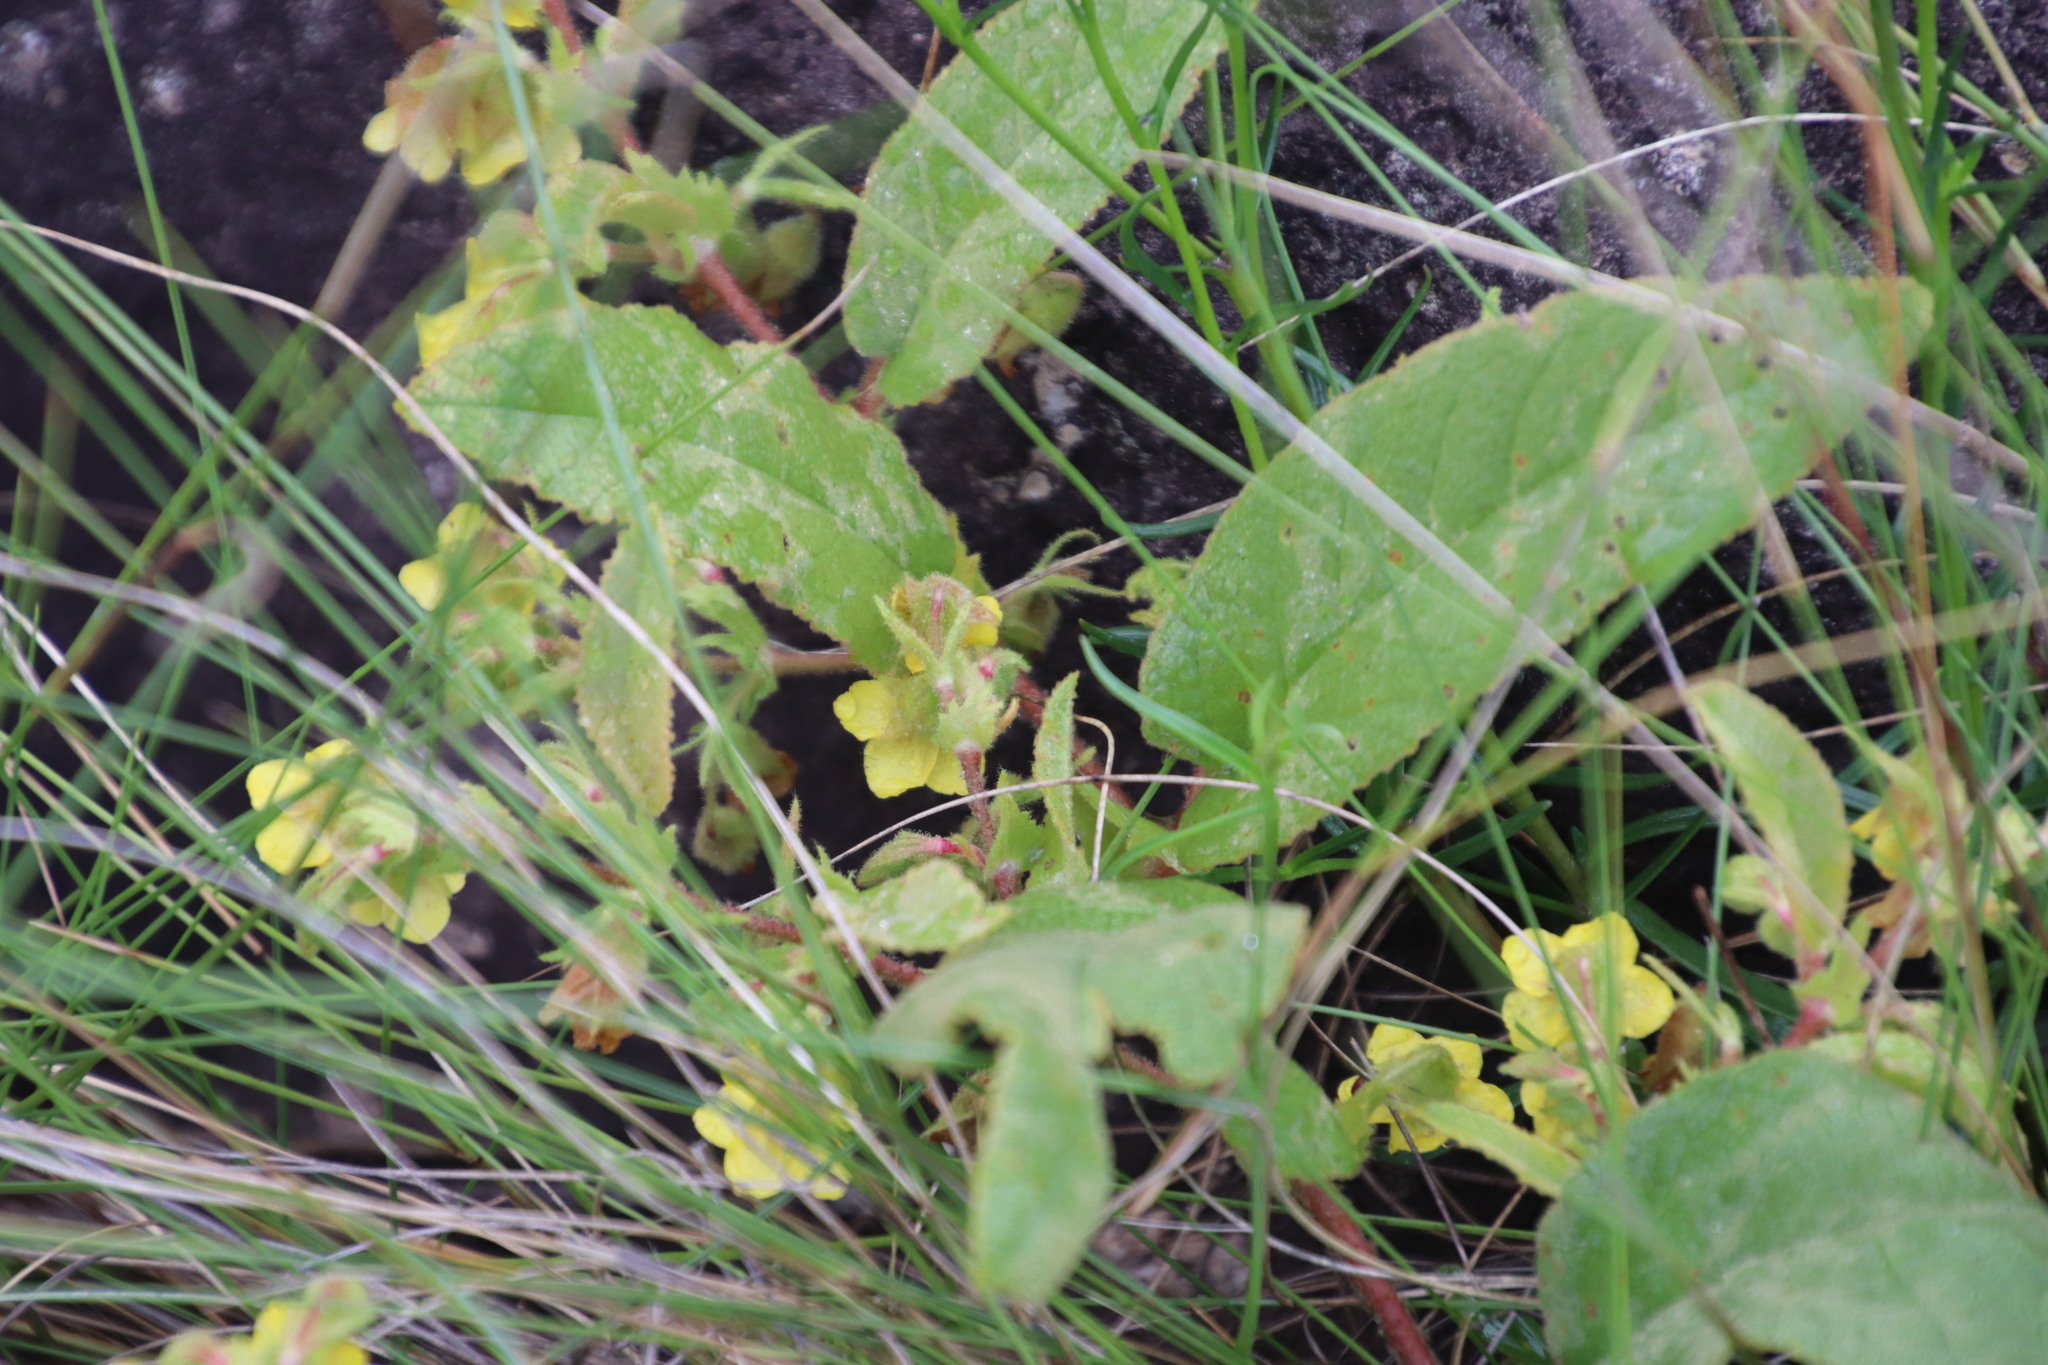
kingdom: Plantae
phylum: Tracheophyta
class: Magnoliopsida
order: Malvales
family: Malvaceae
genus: Hermannia
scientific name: Hermannia gerardii
